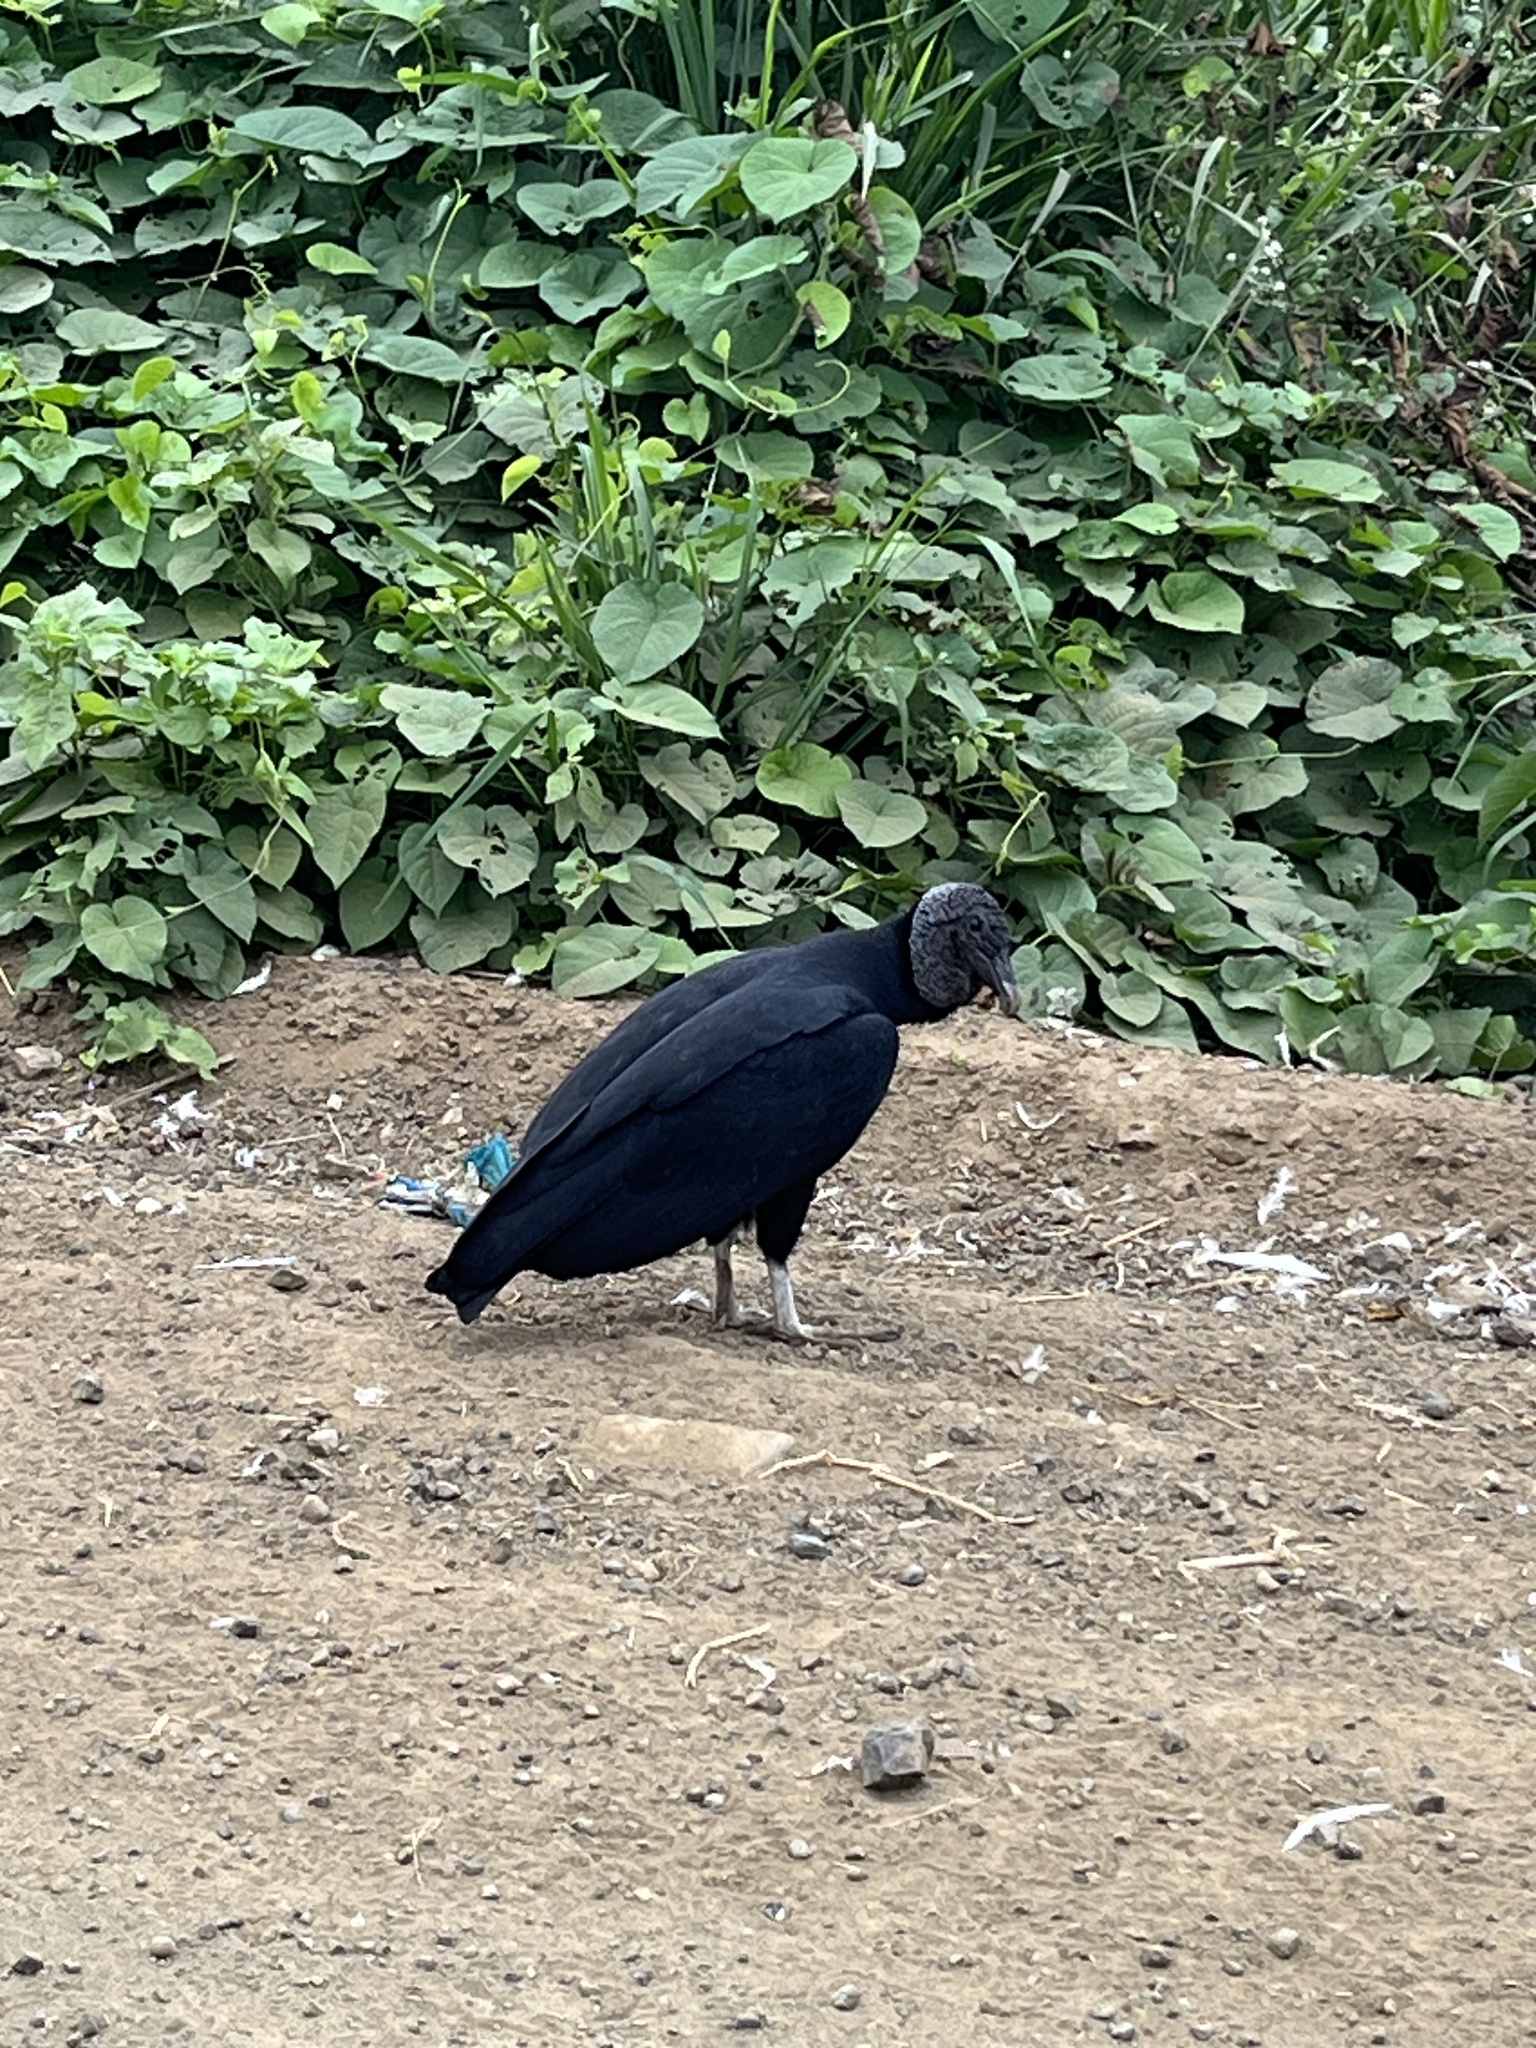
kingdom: Animalia
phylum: Chordata
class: Aves
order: Accipitriformes
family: Cathartidae
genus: Coragyps
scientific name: Coragyps atratus
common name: Black vulture
